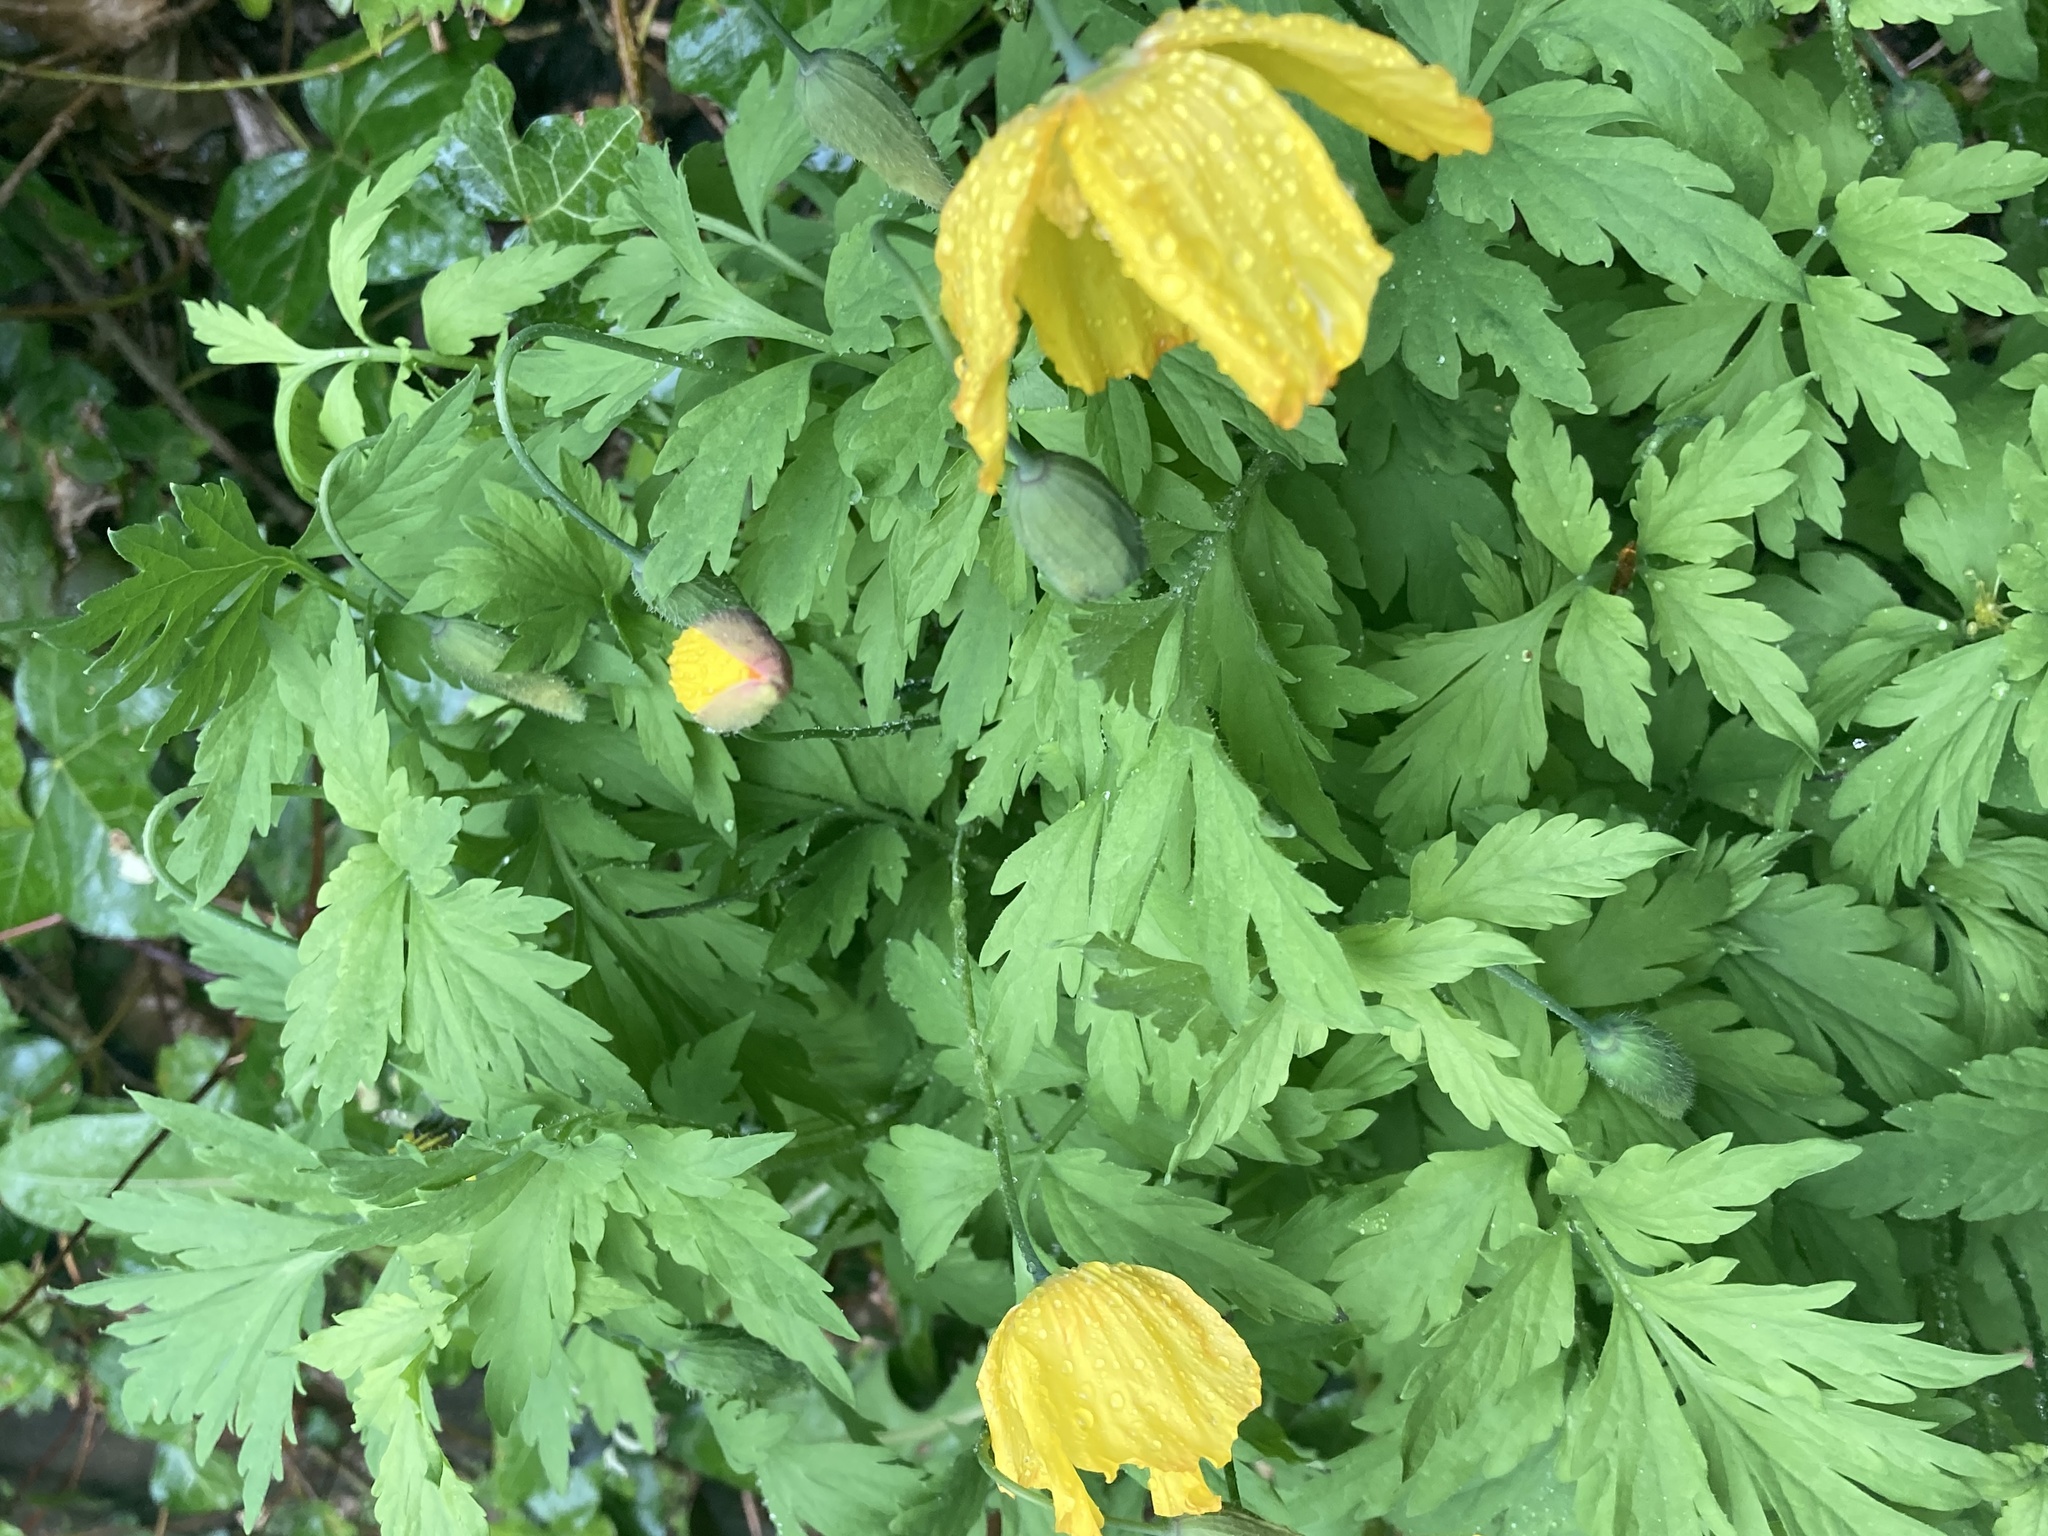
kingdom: Plantae
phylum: Tracheophyta
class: Magnoliopsida
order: Ranunculales
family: Papaveraceae
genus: Papaver
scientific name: Papaver cambricum
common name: Poppy
